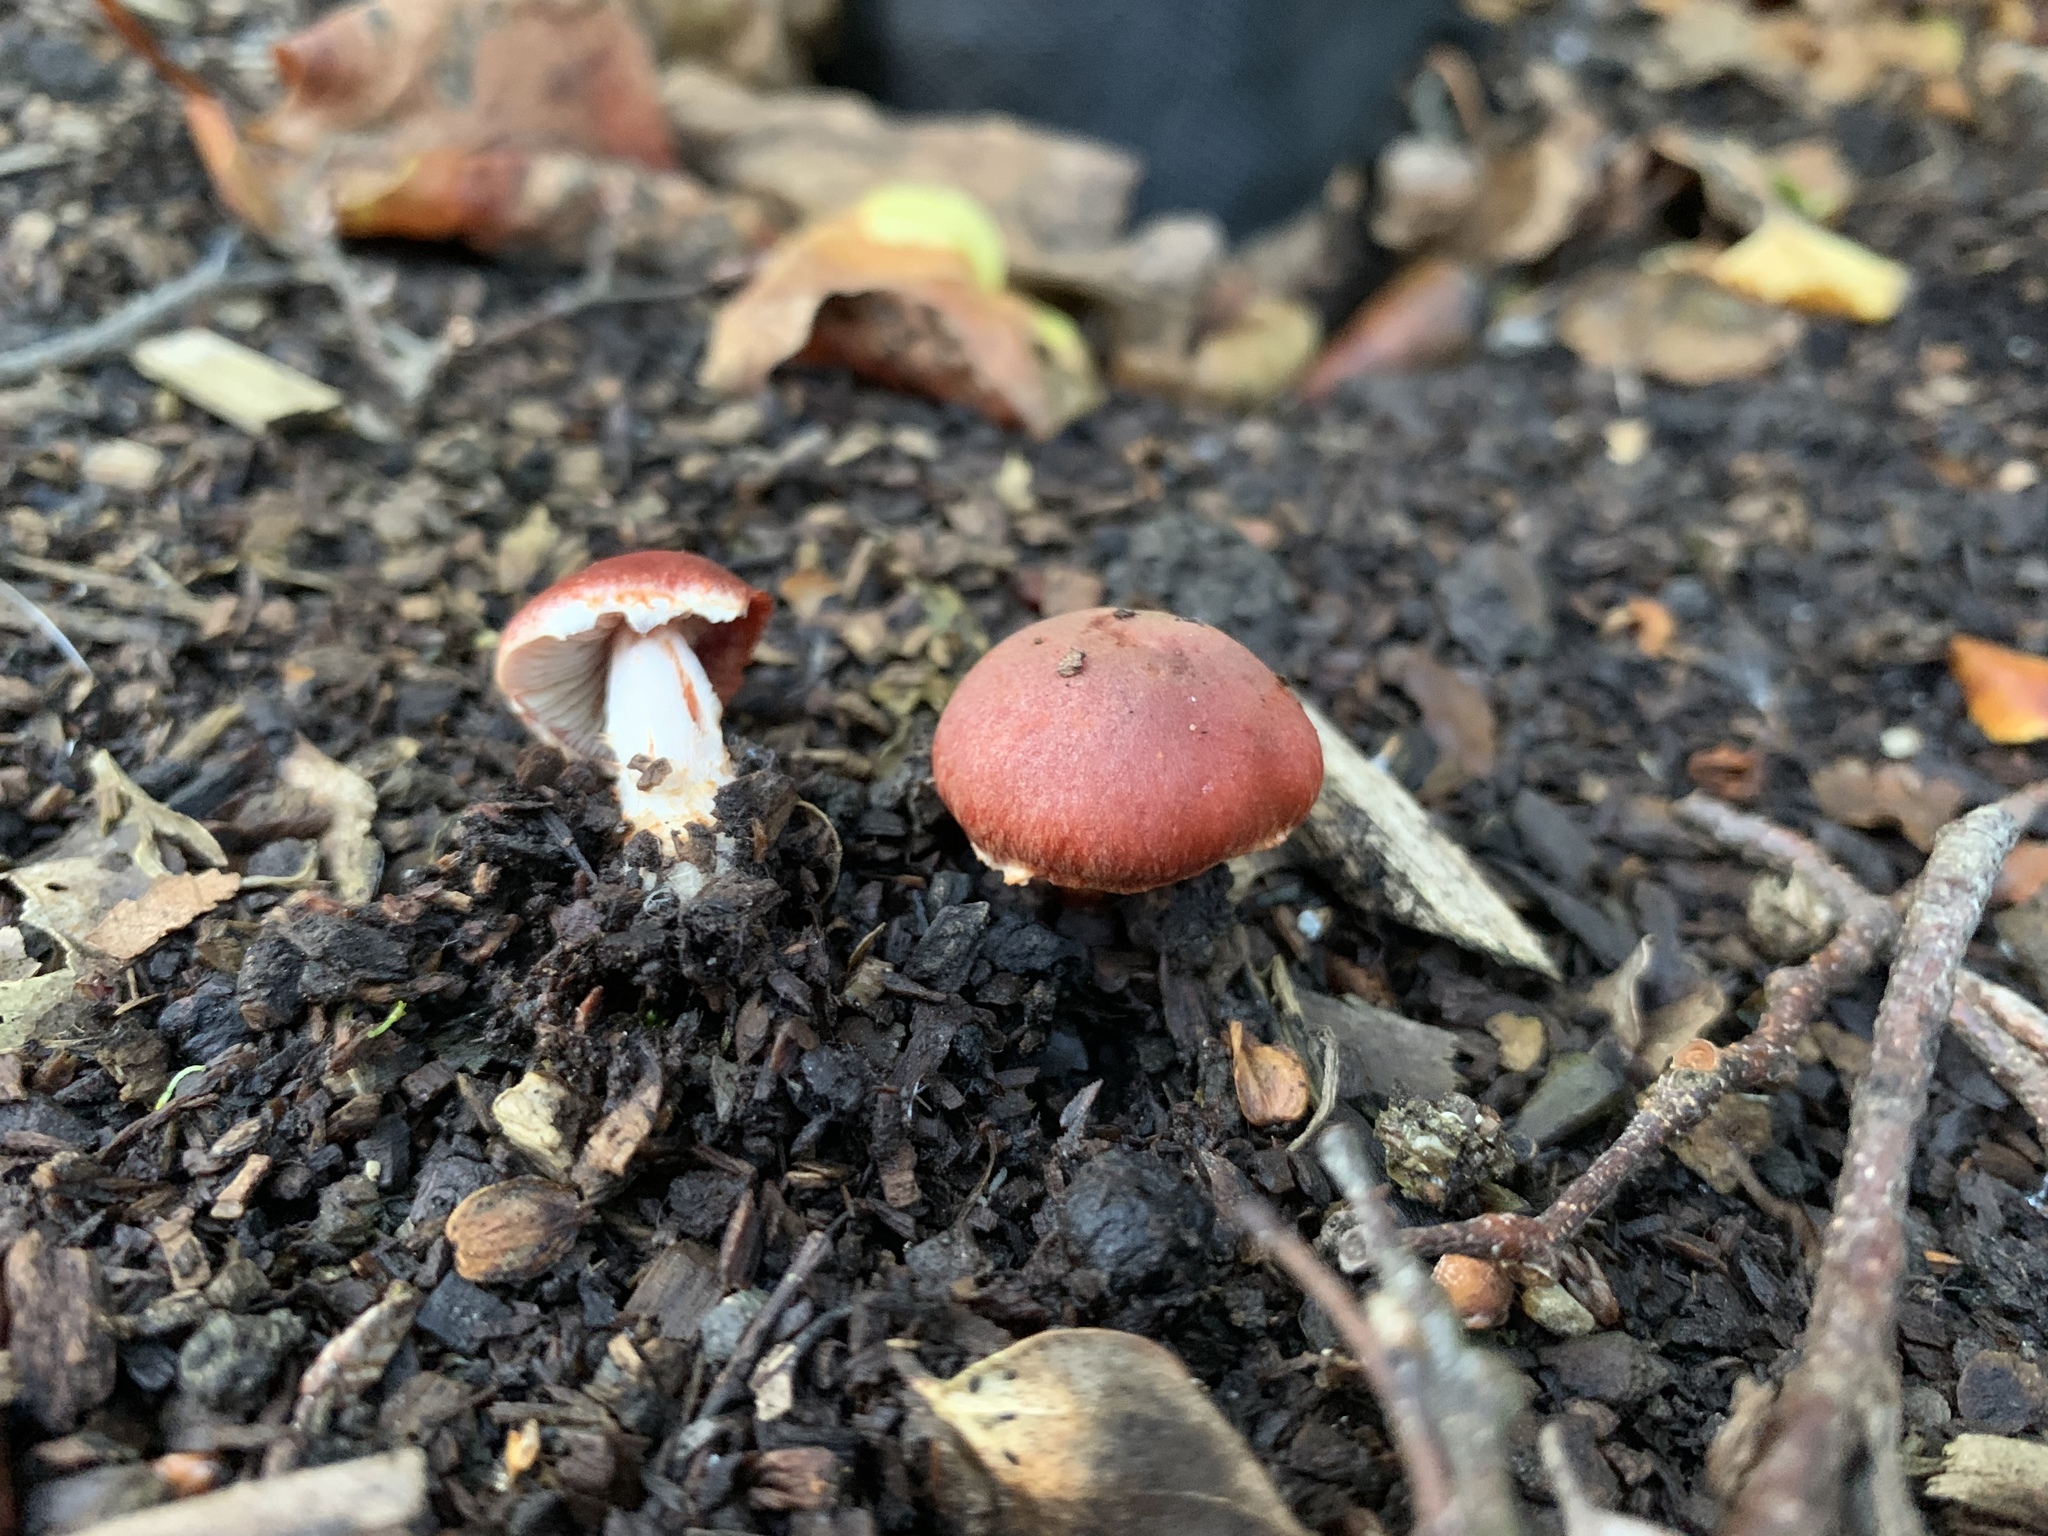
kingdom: Fungi
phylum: Basidiomycota
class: Agaricomycetes
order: Agaricales
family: Strophariaceae
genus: Leratiomyces
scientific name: Leratiomyces ceres
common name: Redlead roundhead
